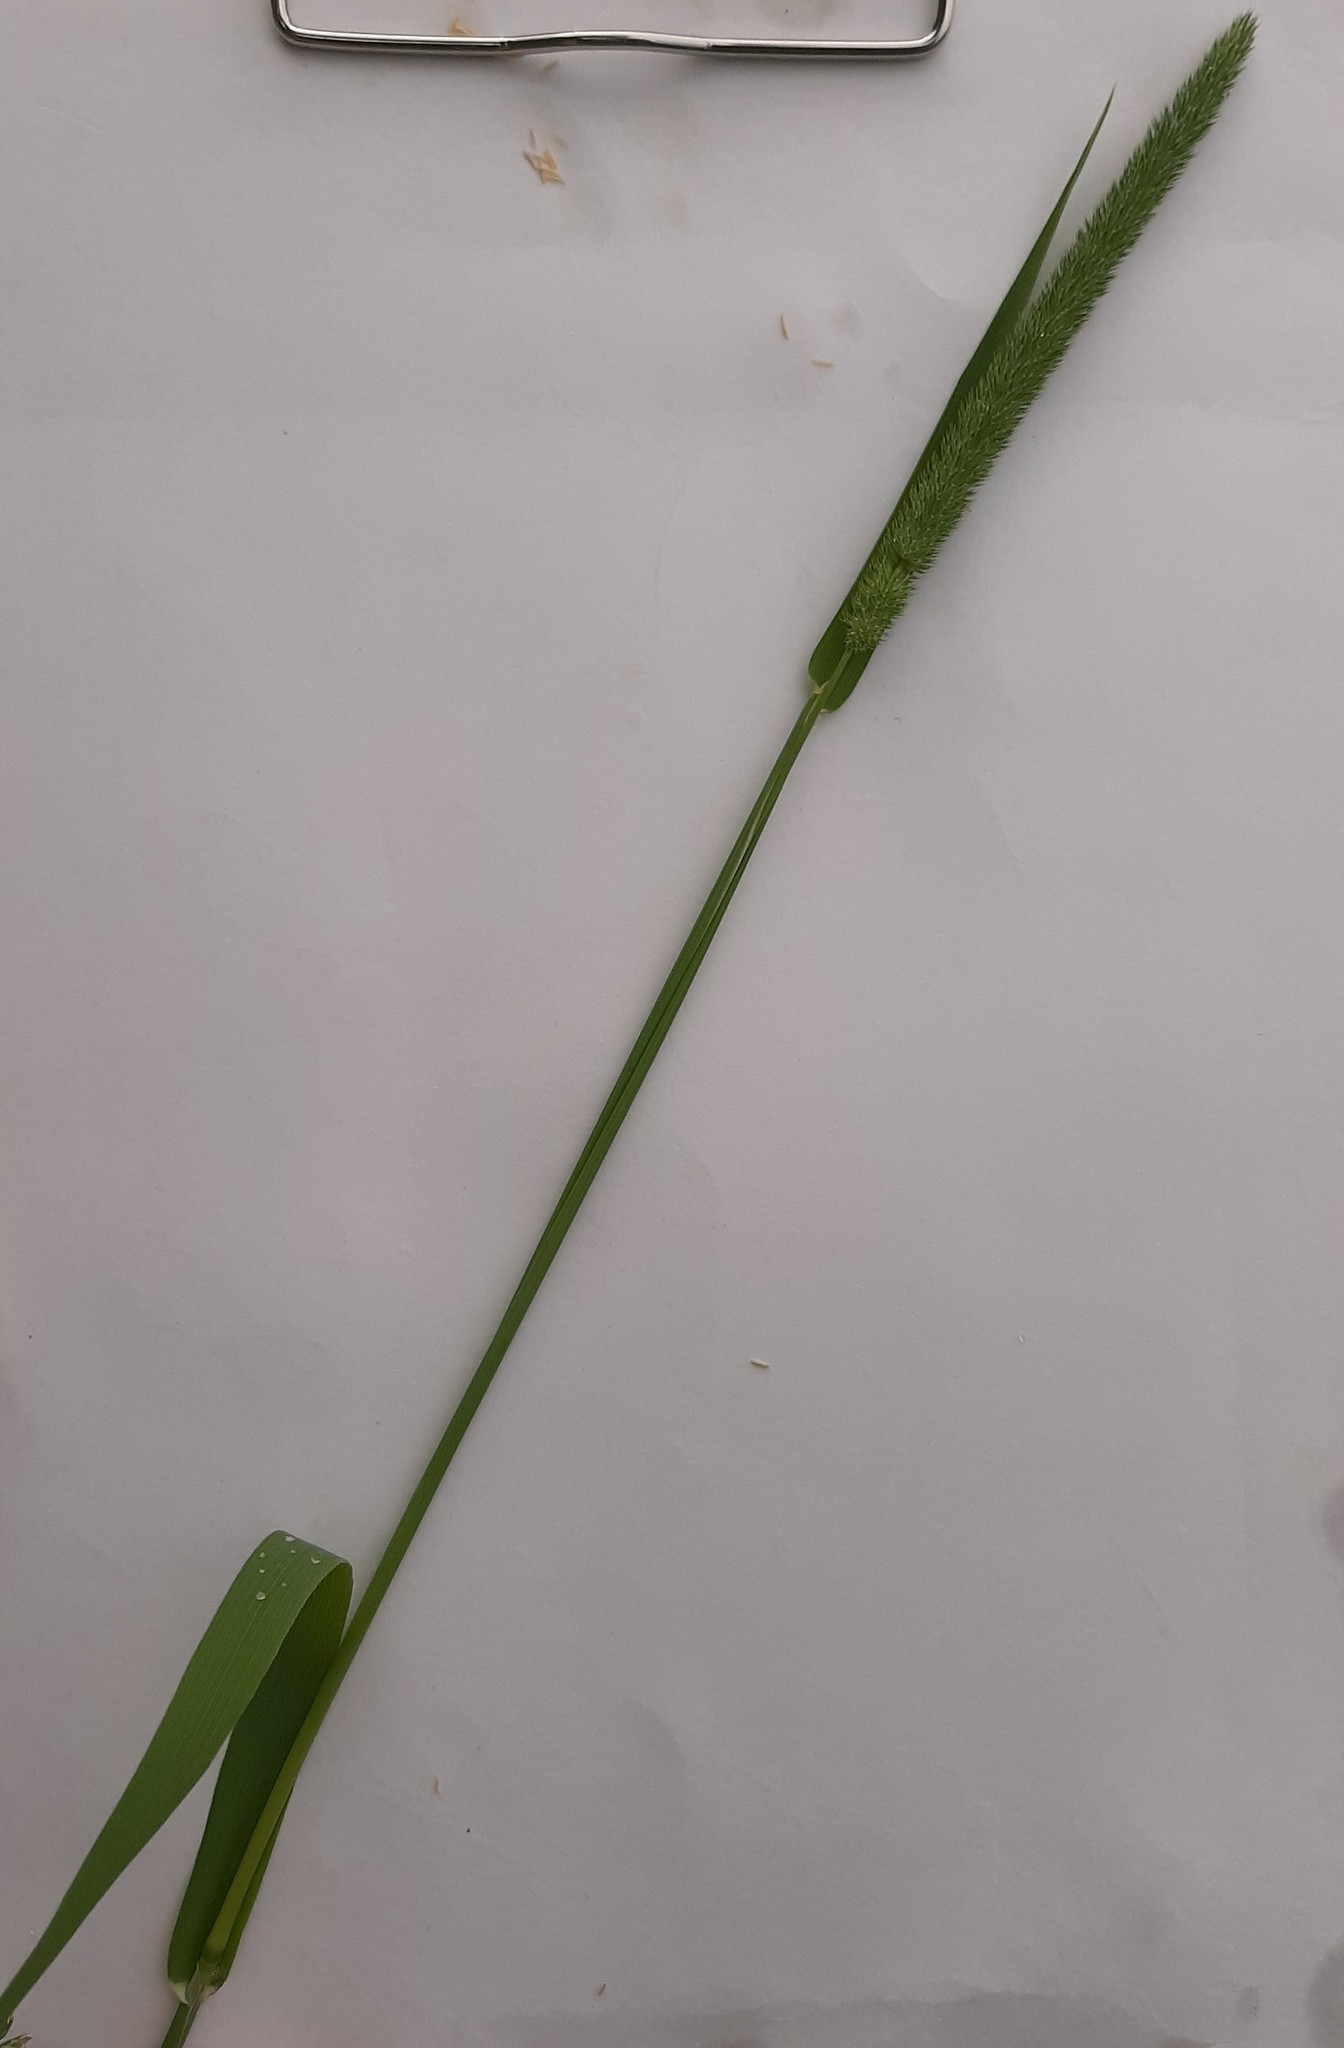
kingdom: Plantae
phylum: Tracheophyta
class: Liliopsida
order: Poales
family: Poaceae
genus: Phleum
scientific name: Phleum pratense
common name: Timothy grass
